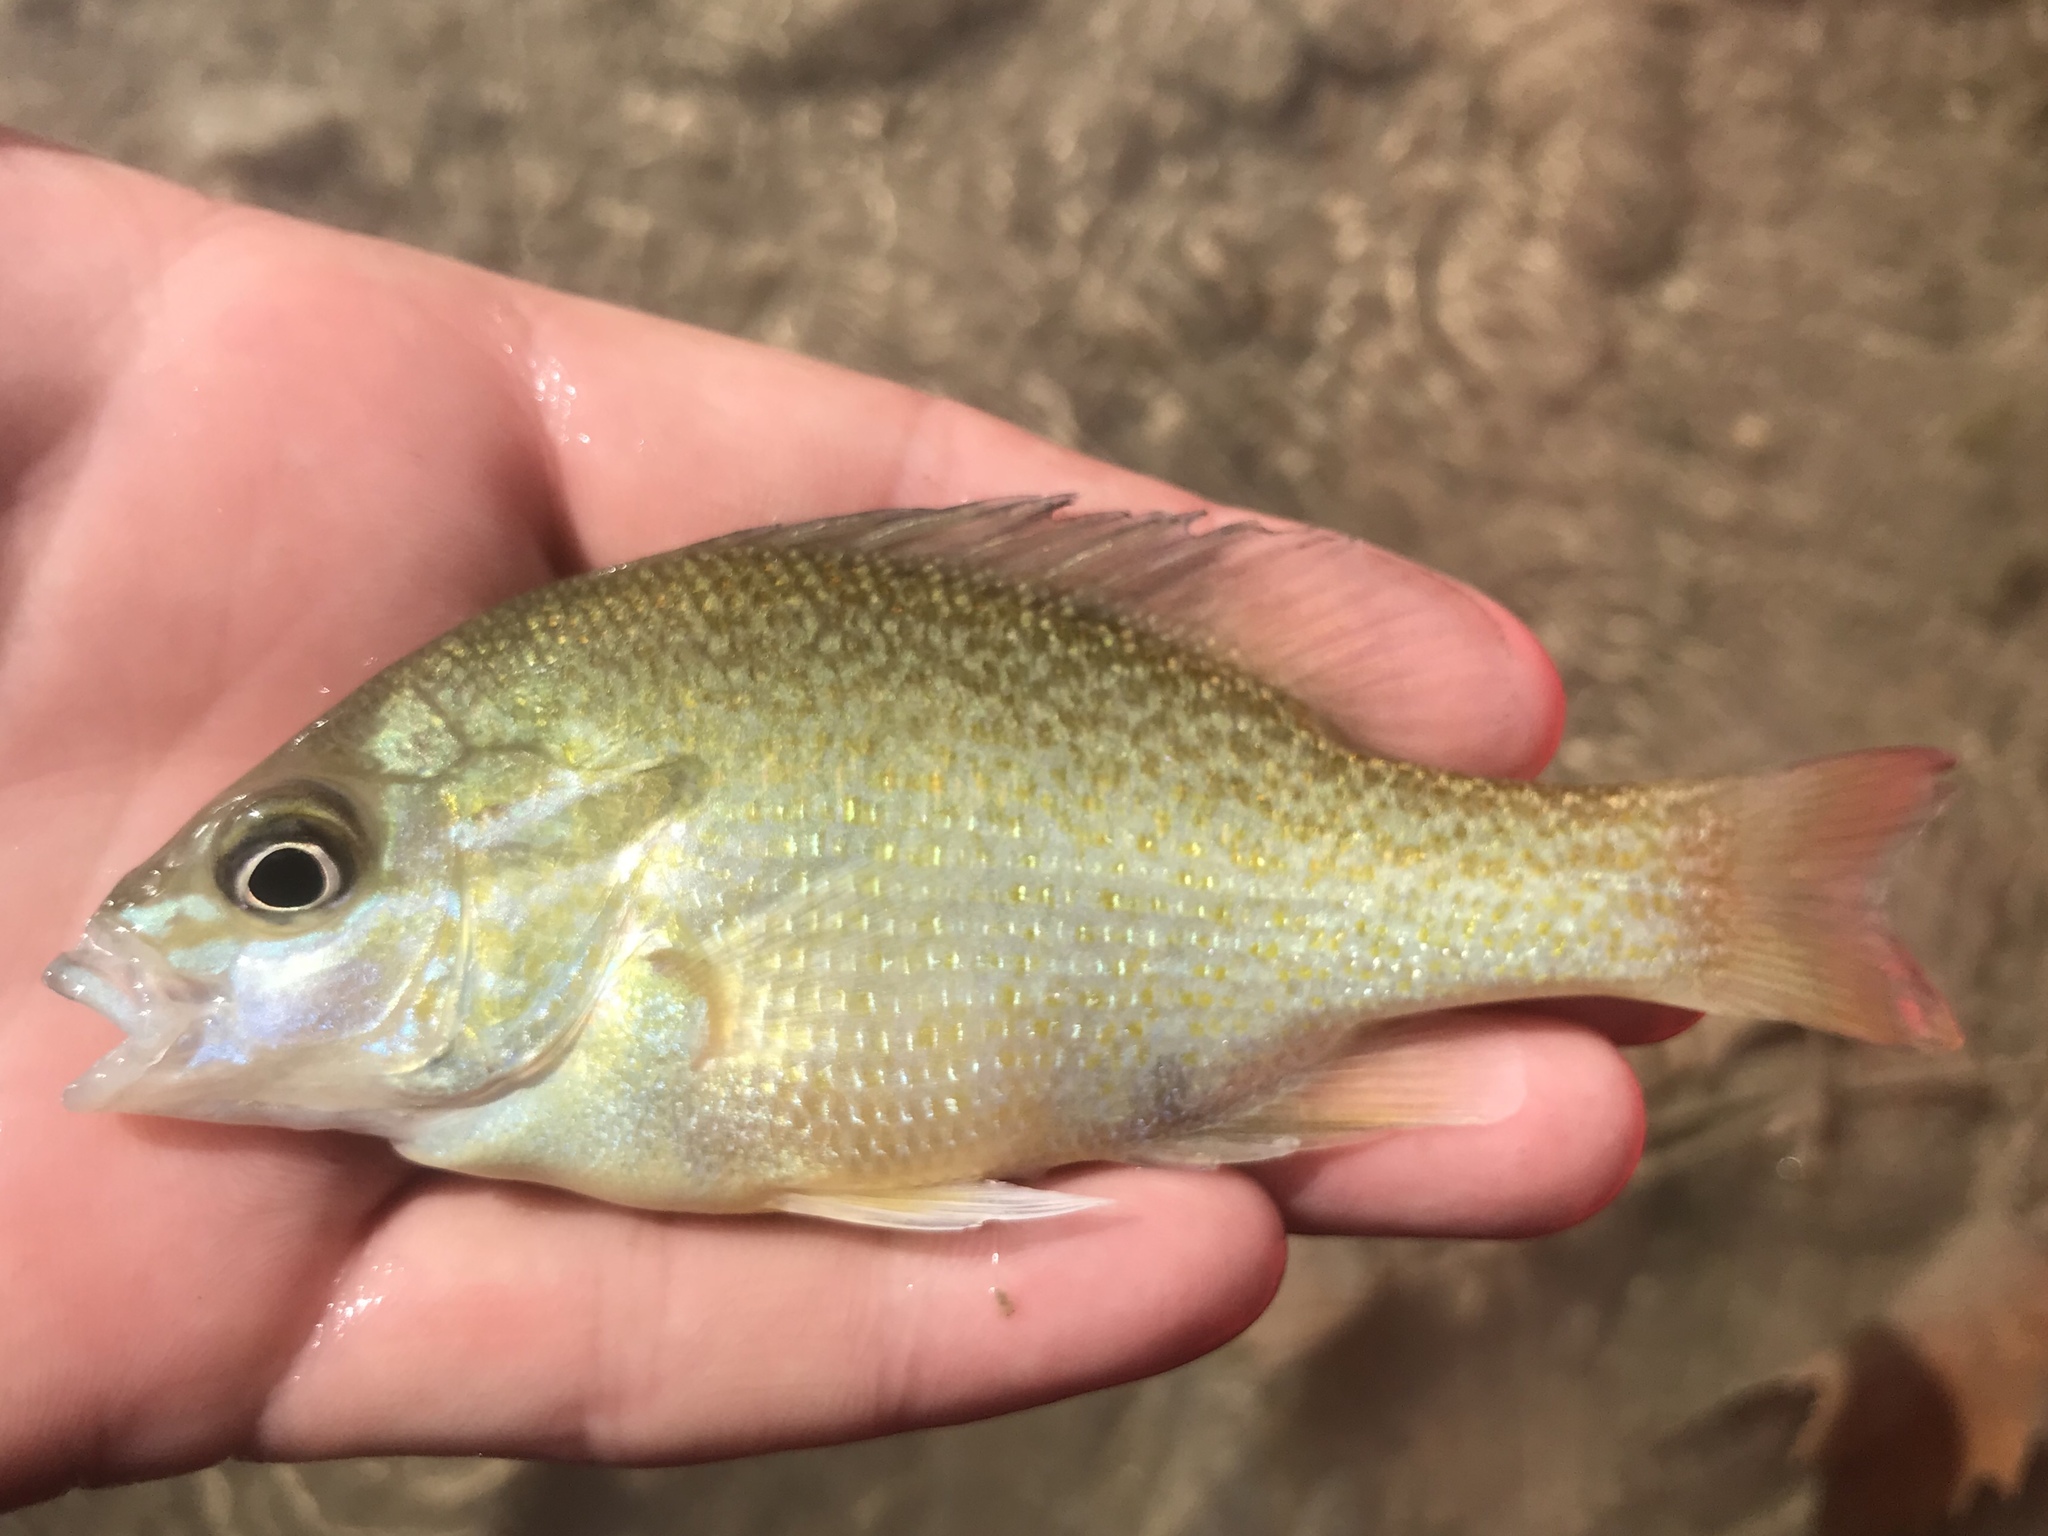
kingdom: Animalia
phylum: Chordata
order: Perciformes
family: Centrarchidae
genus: Lepomis
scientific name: Lepomis auritus
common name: Redbreast sunfish
